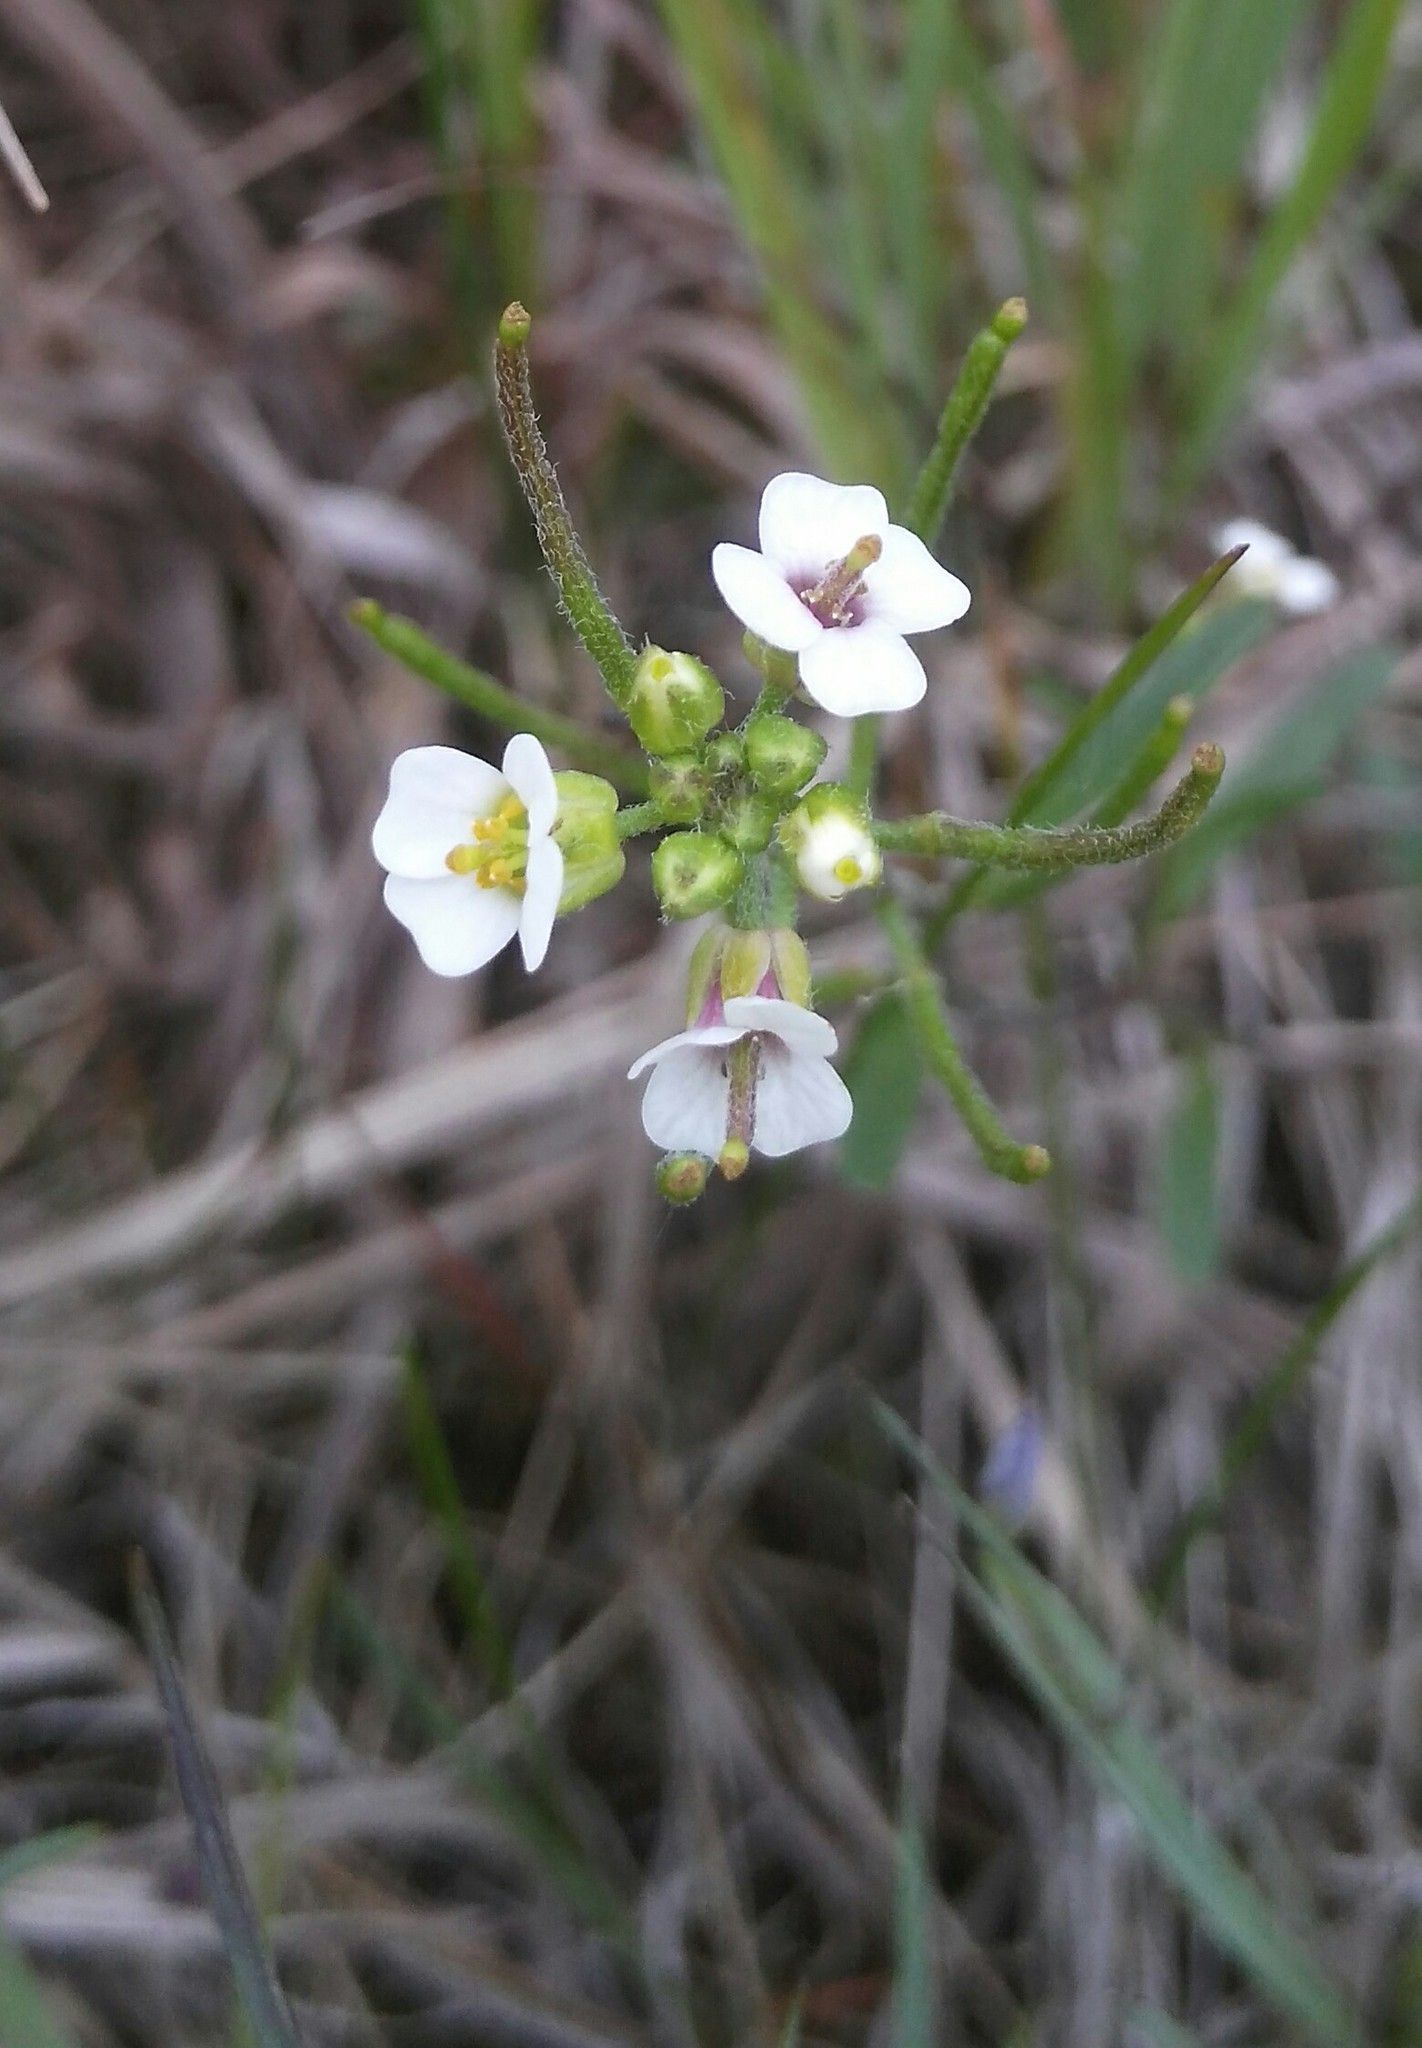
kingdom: Plantae
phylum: Tracheophyta
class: Magnoliopsida
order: Brassicales
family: Brassicaceae
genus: Dontostemon
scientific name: Dontostemon integrifolius
